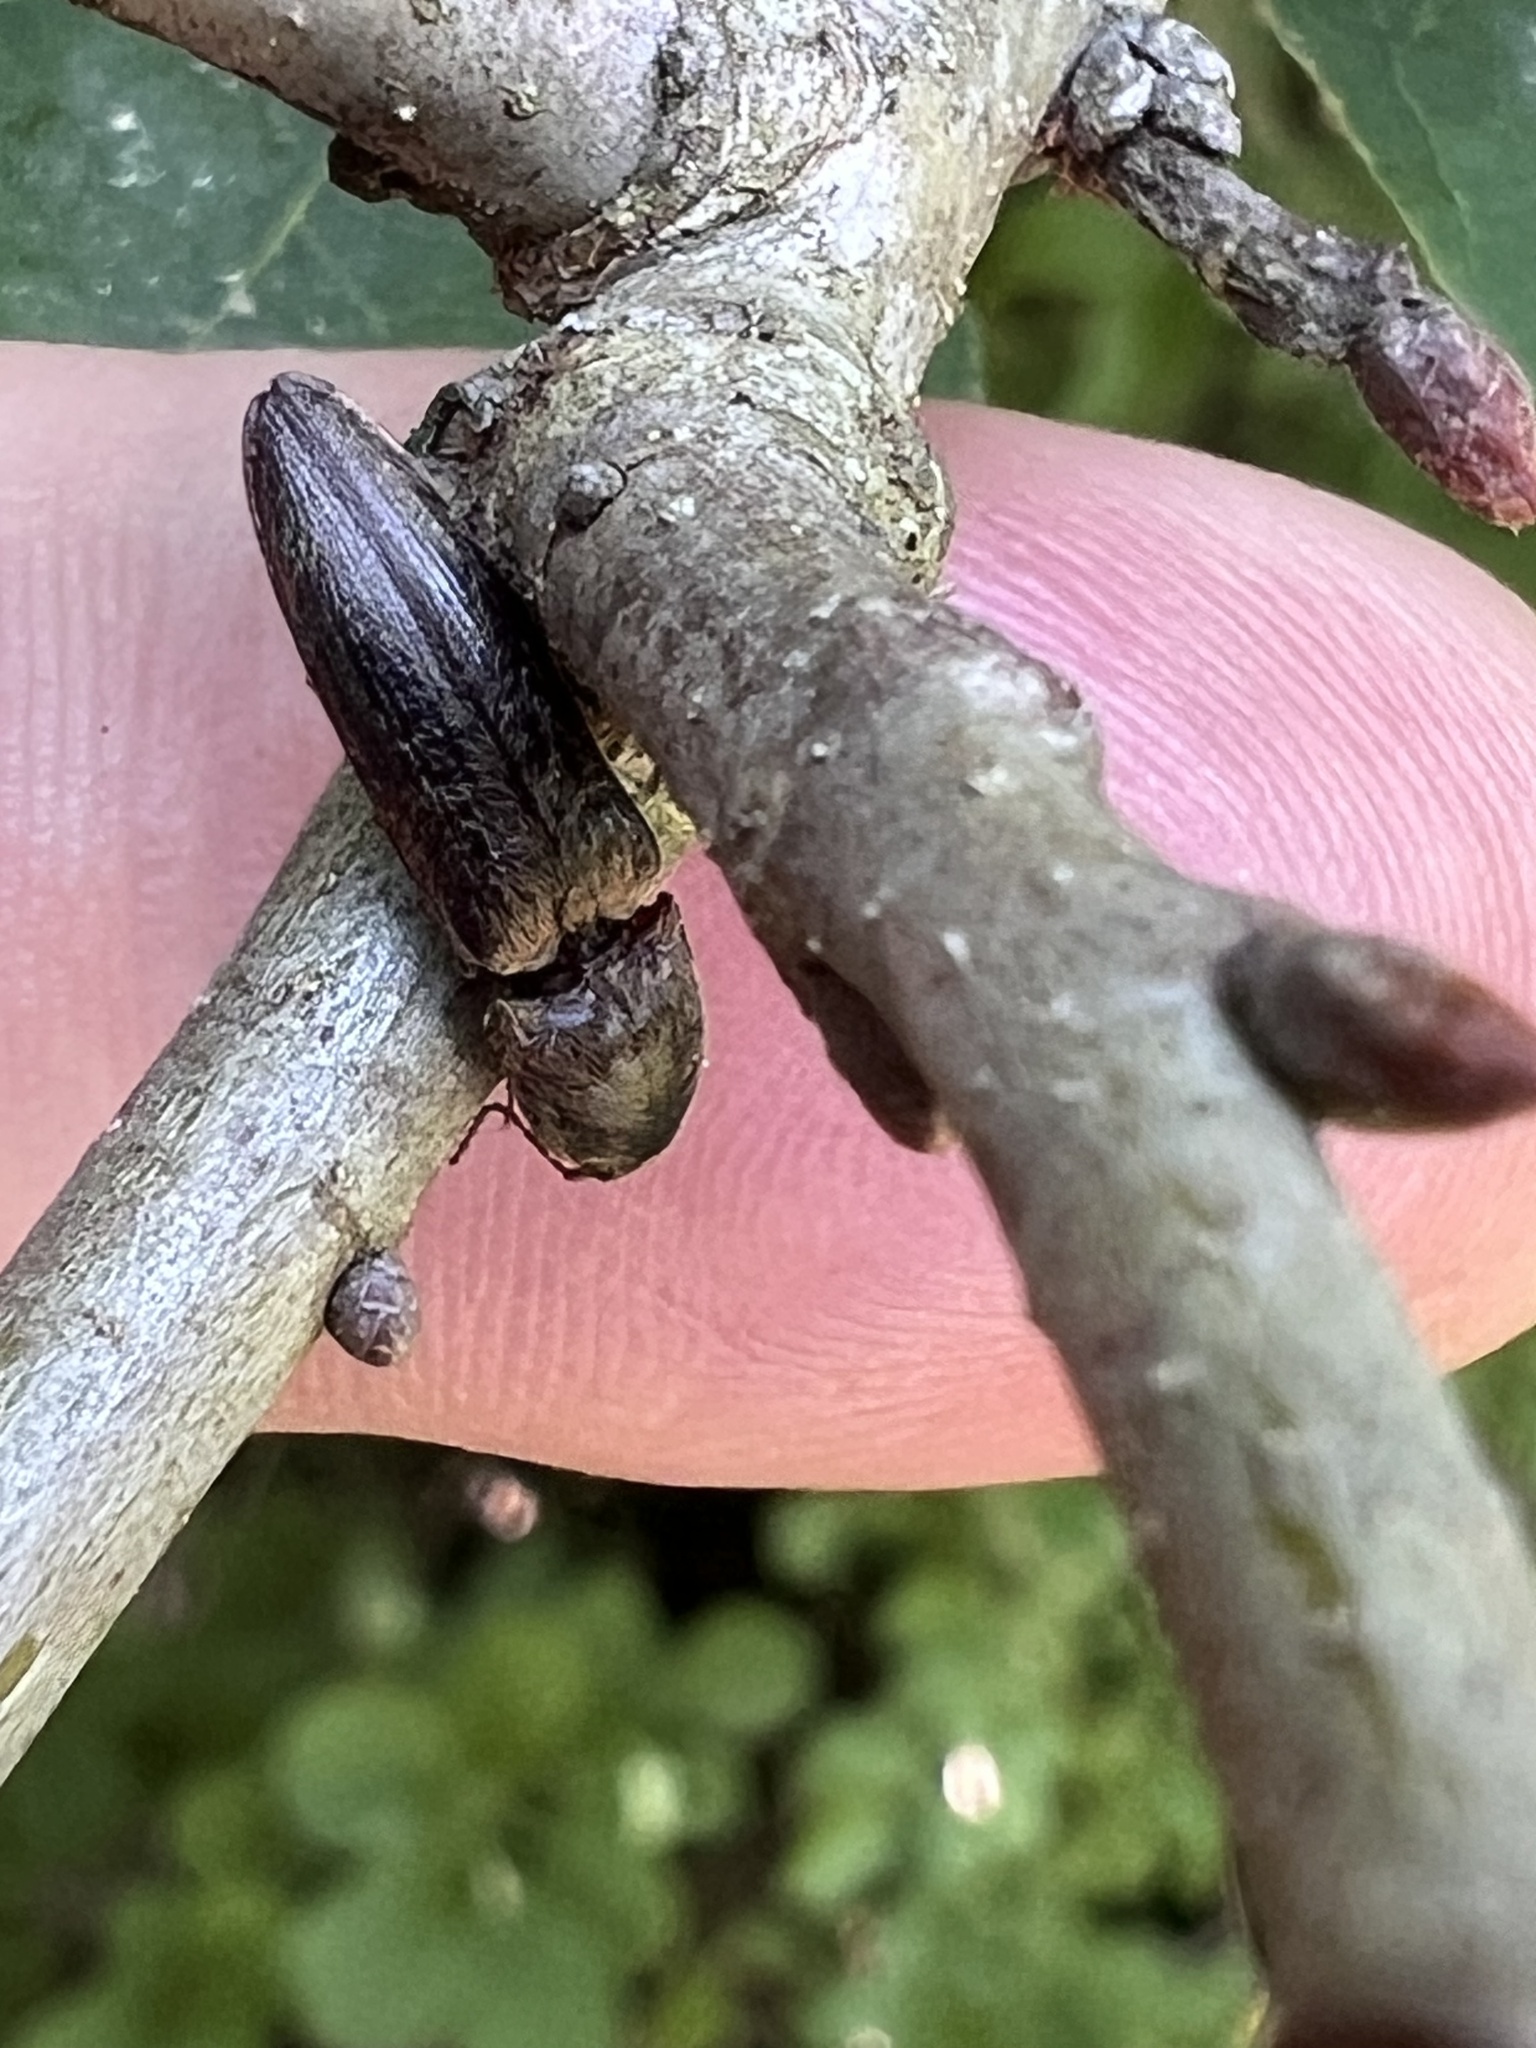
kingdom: Animalia
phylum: Arthropoda
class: Insecta
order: Coleoptera
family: Elateridae
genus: Gambrinus
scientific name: Gambrinus griseus
